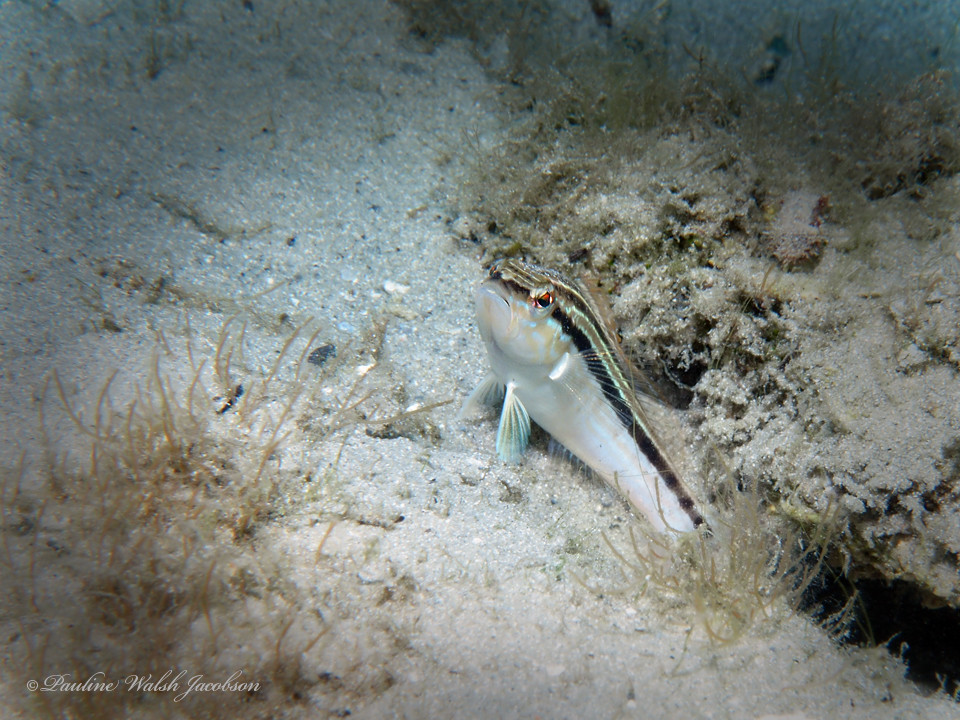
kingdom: Animalia
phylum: Chordata
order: Perciformes
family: Serranidae
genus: Diplectrum
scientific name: Diplectrum formosum
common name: Sand perch
